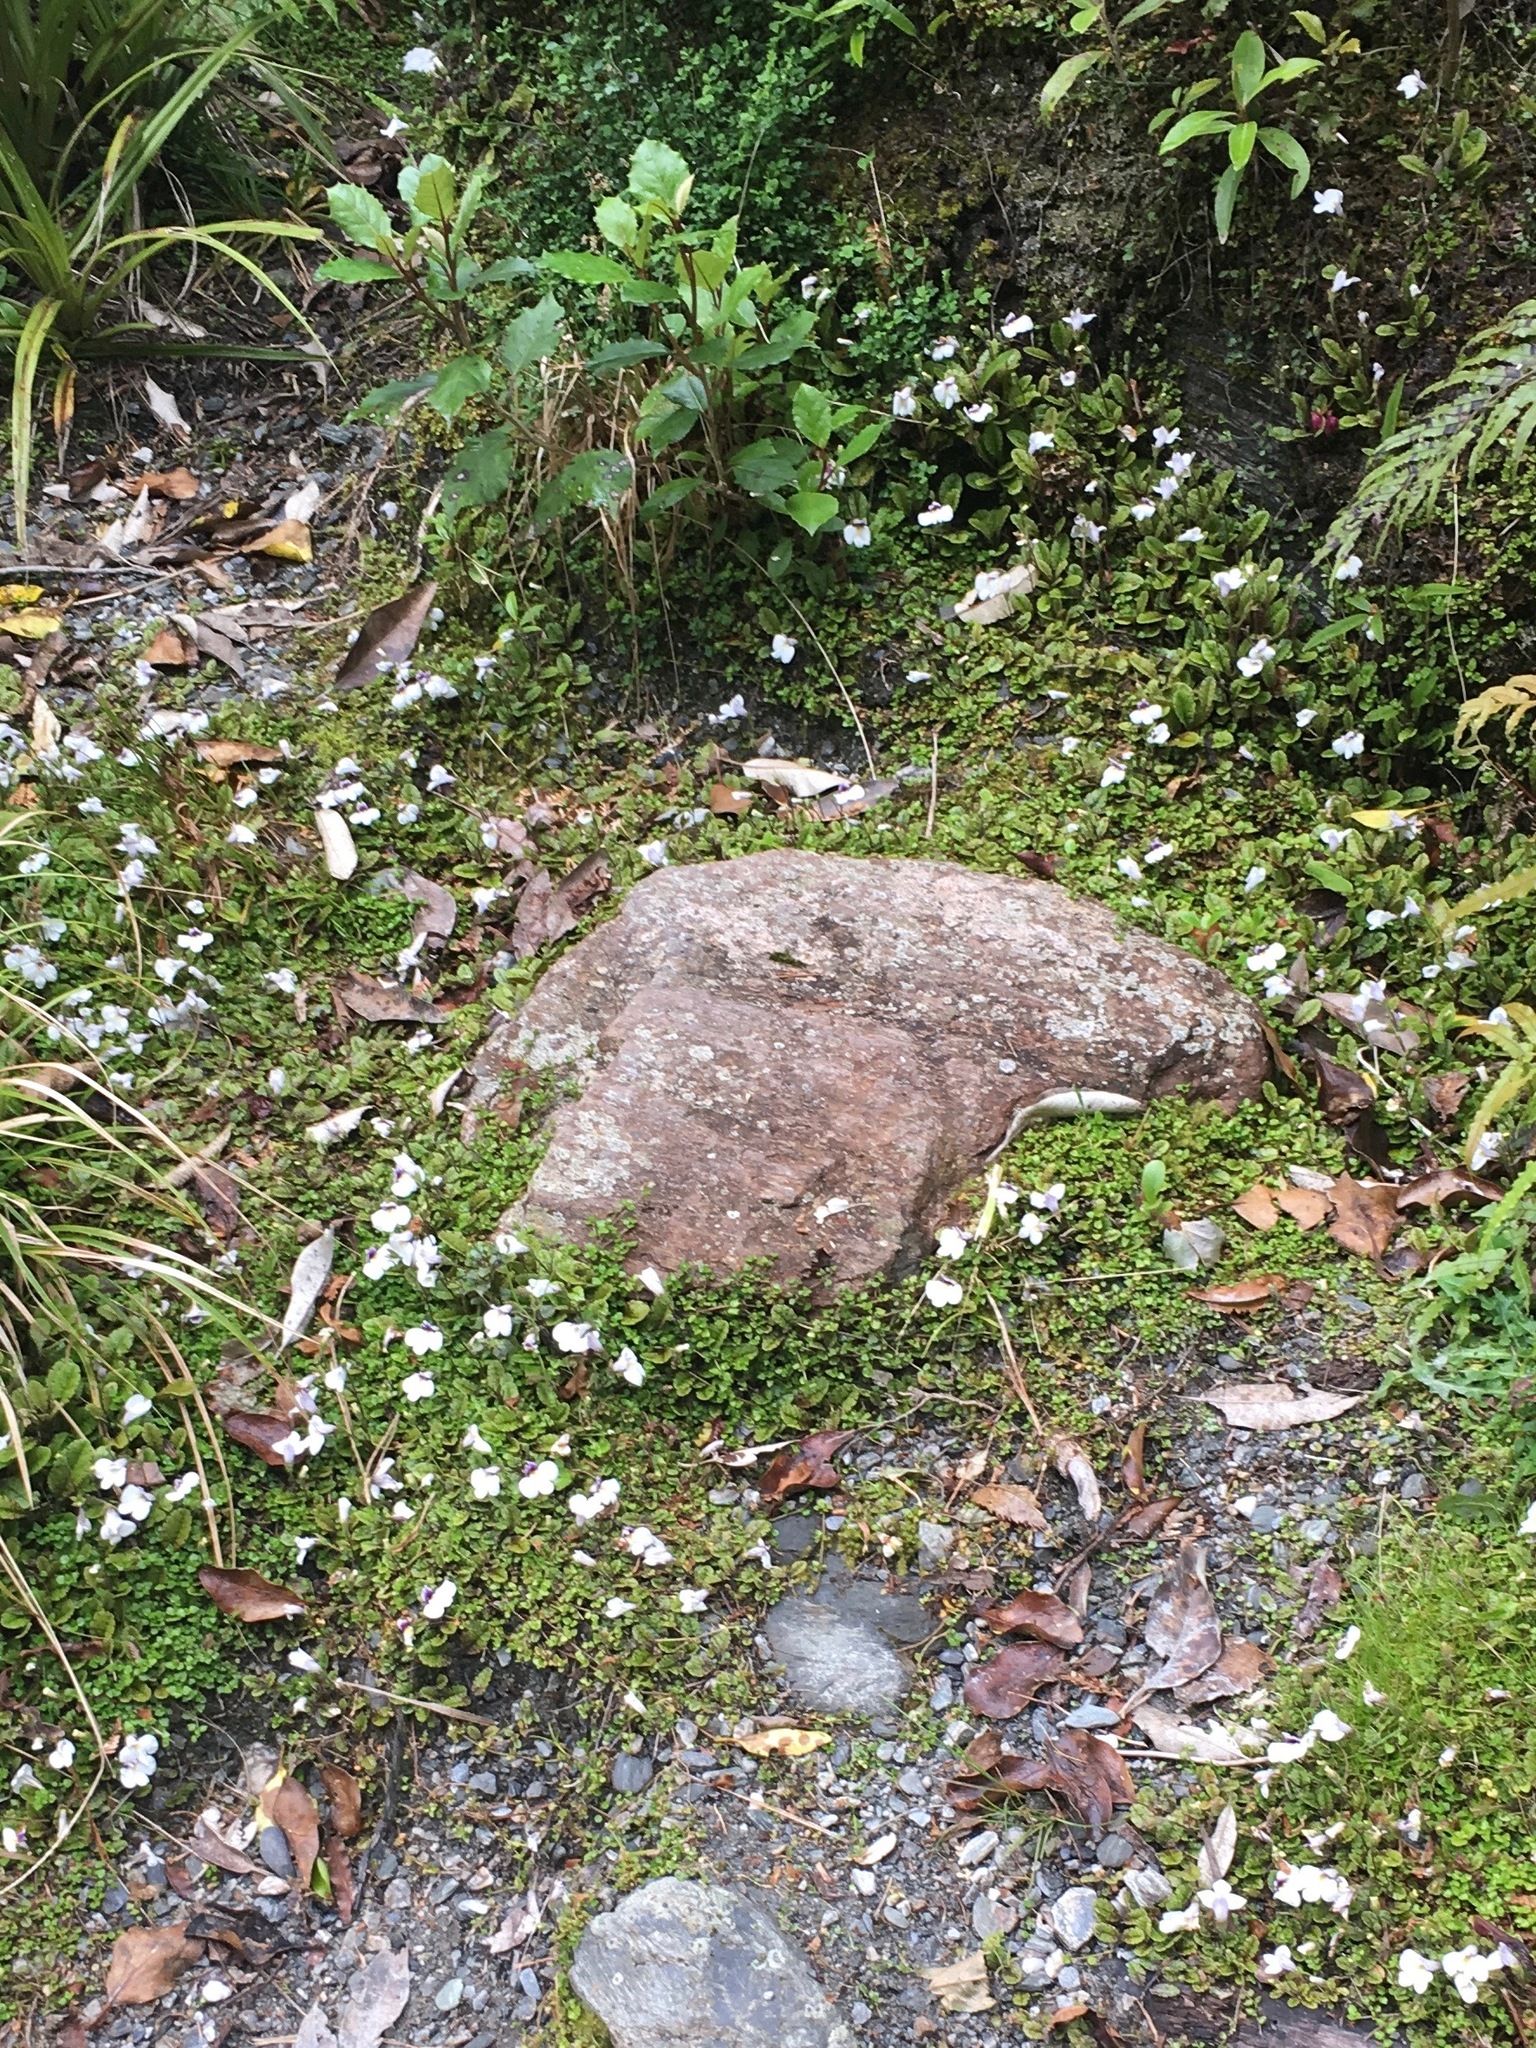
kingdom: Plantae
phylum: Tracheophyta
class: Magnoliopsida
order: Lamiales
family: Mazaceae
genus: Mazus
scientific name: Mazus radicans
